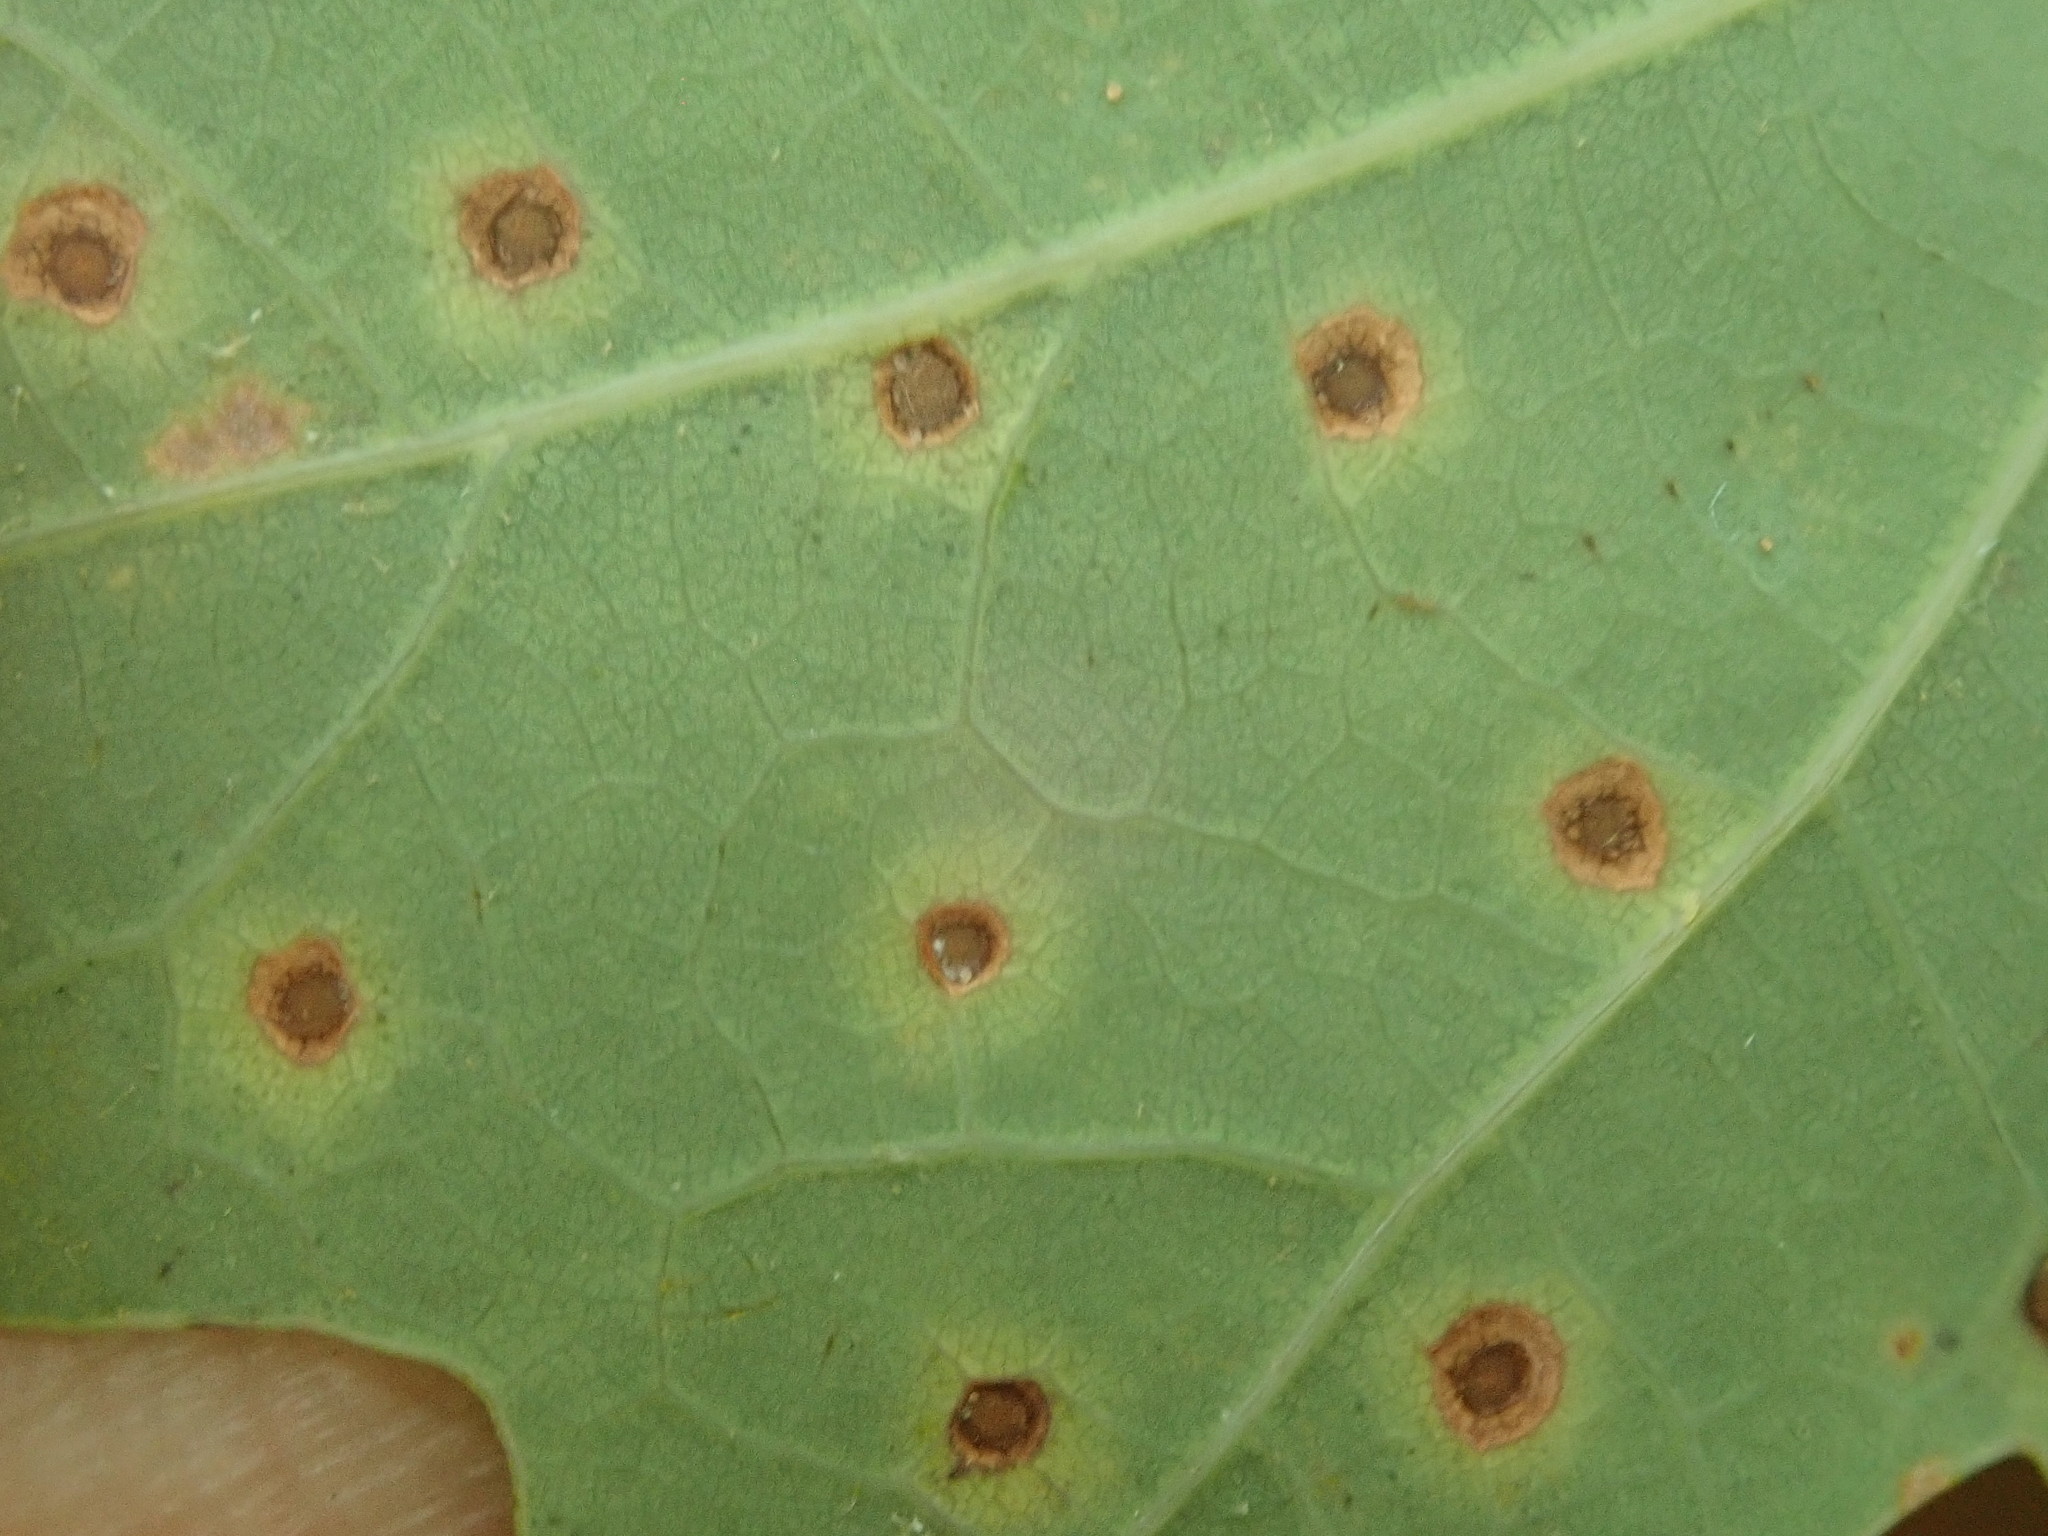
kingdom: Animalia
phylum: Arthropoda
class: Insecta
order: Hymenoptera
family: Cynipidae
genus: Neuroterus
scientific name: Neuroterus
